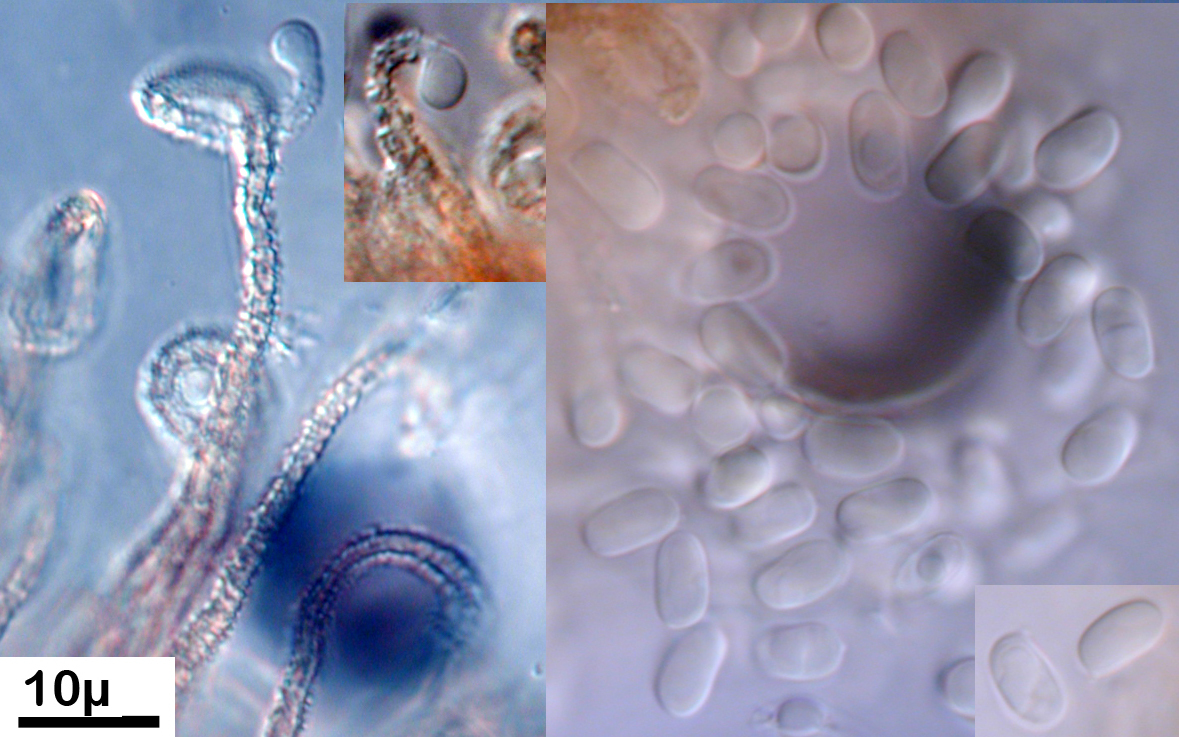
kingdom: Fungi
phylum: Basidiomycota
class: Agaricomycetes
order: Agaricales
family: Niaceae
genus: Merismodes
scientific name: Merismodes anomala
